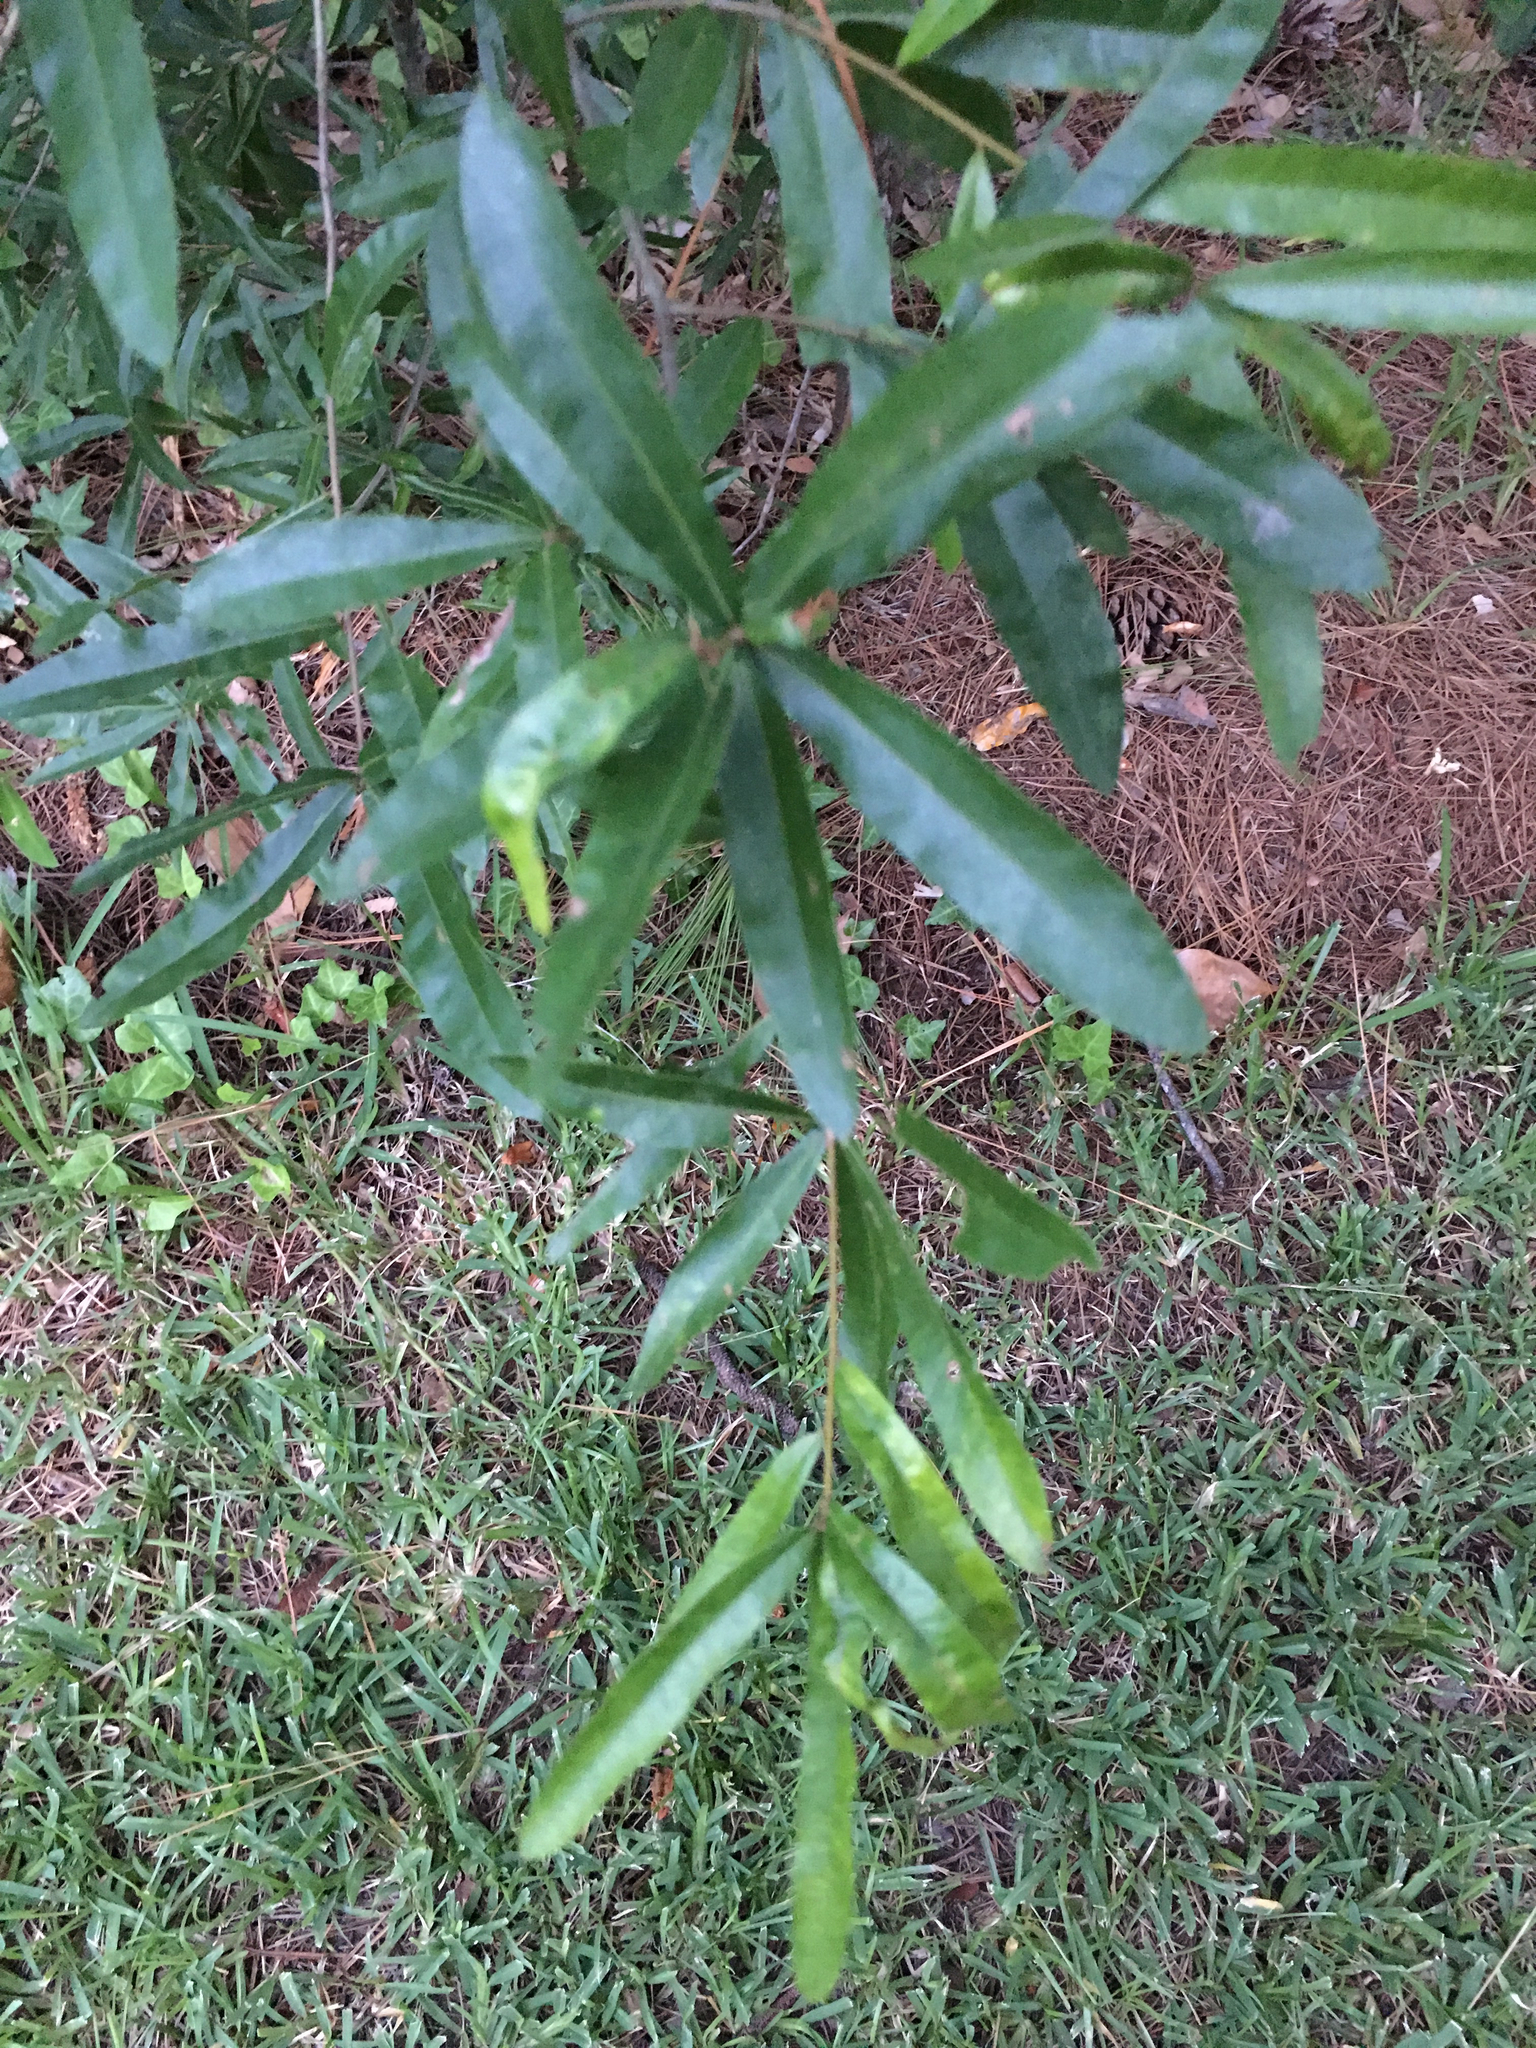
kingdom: Plantae
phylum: Tracheophyta
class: Magnoliopsida
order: Fagales
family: Fagaceae
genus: Quercus
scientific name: Quercus phellos
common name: Willow oak
